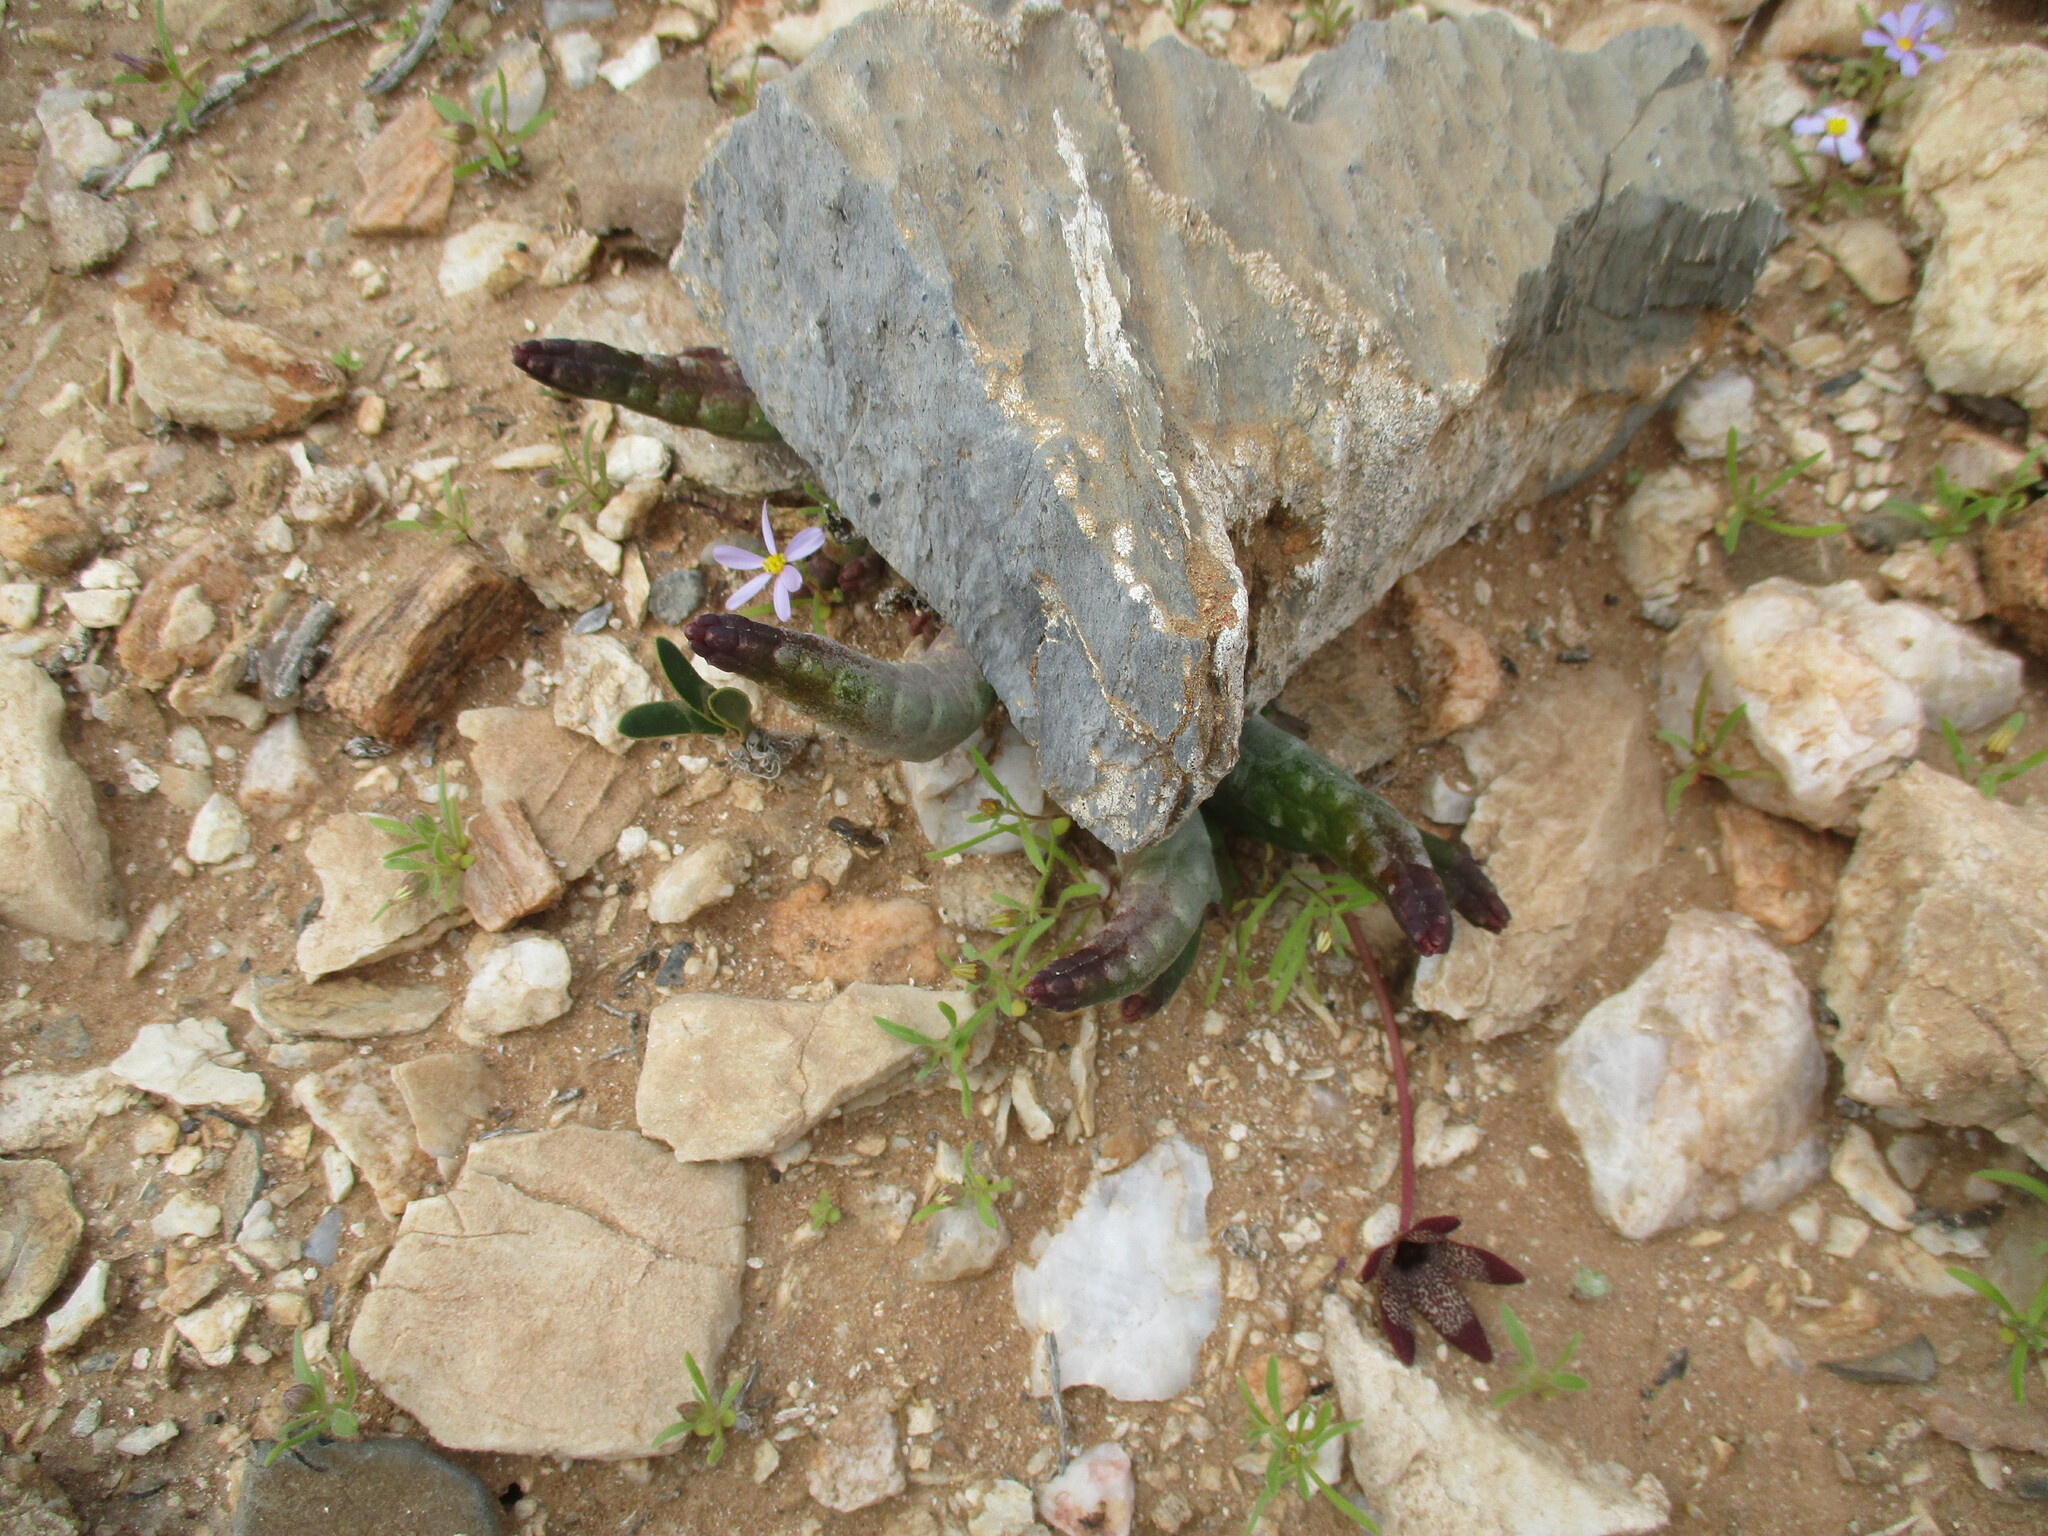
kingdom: Plantae
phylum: Tracheophyta
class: Magnoliopsida
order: Gentianales
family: Apocynaceae
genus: Ceropegia
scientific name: Ceropegia aperta
